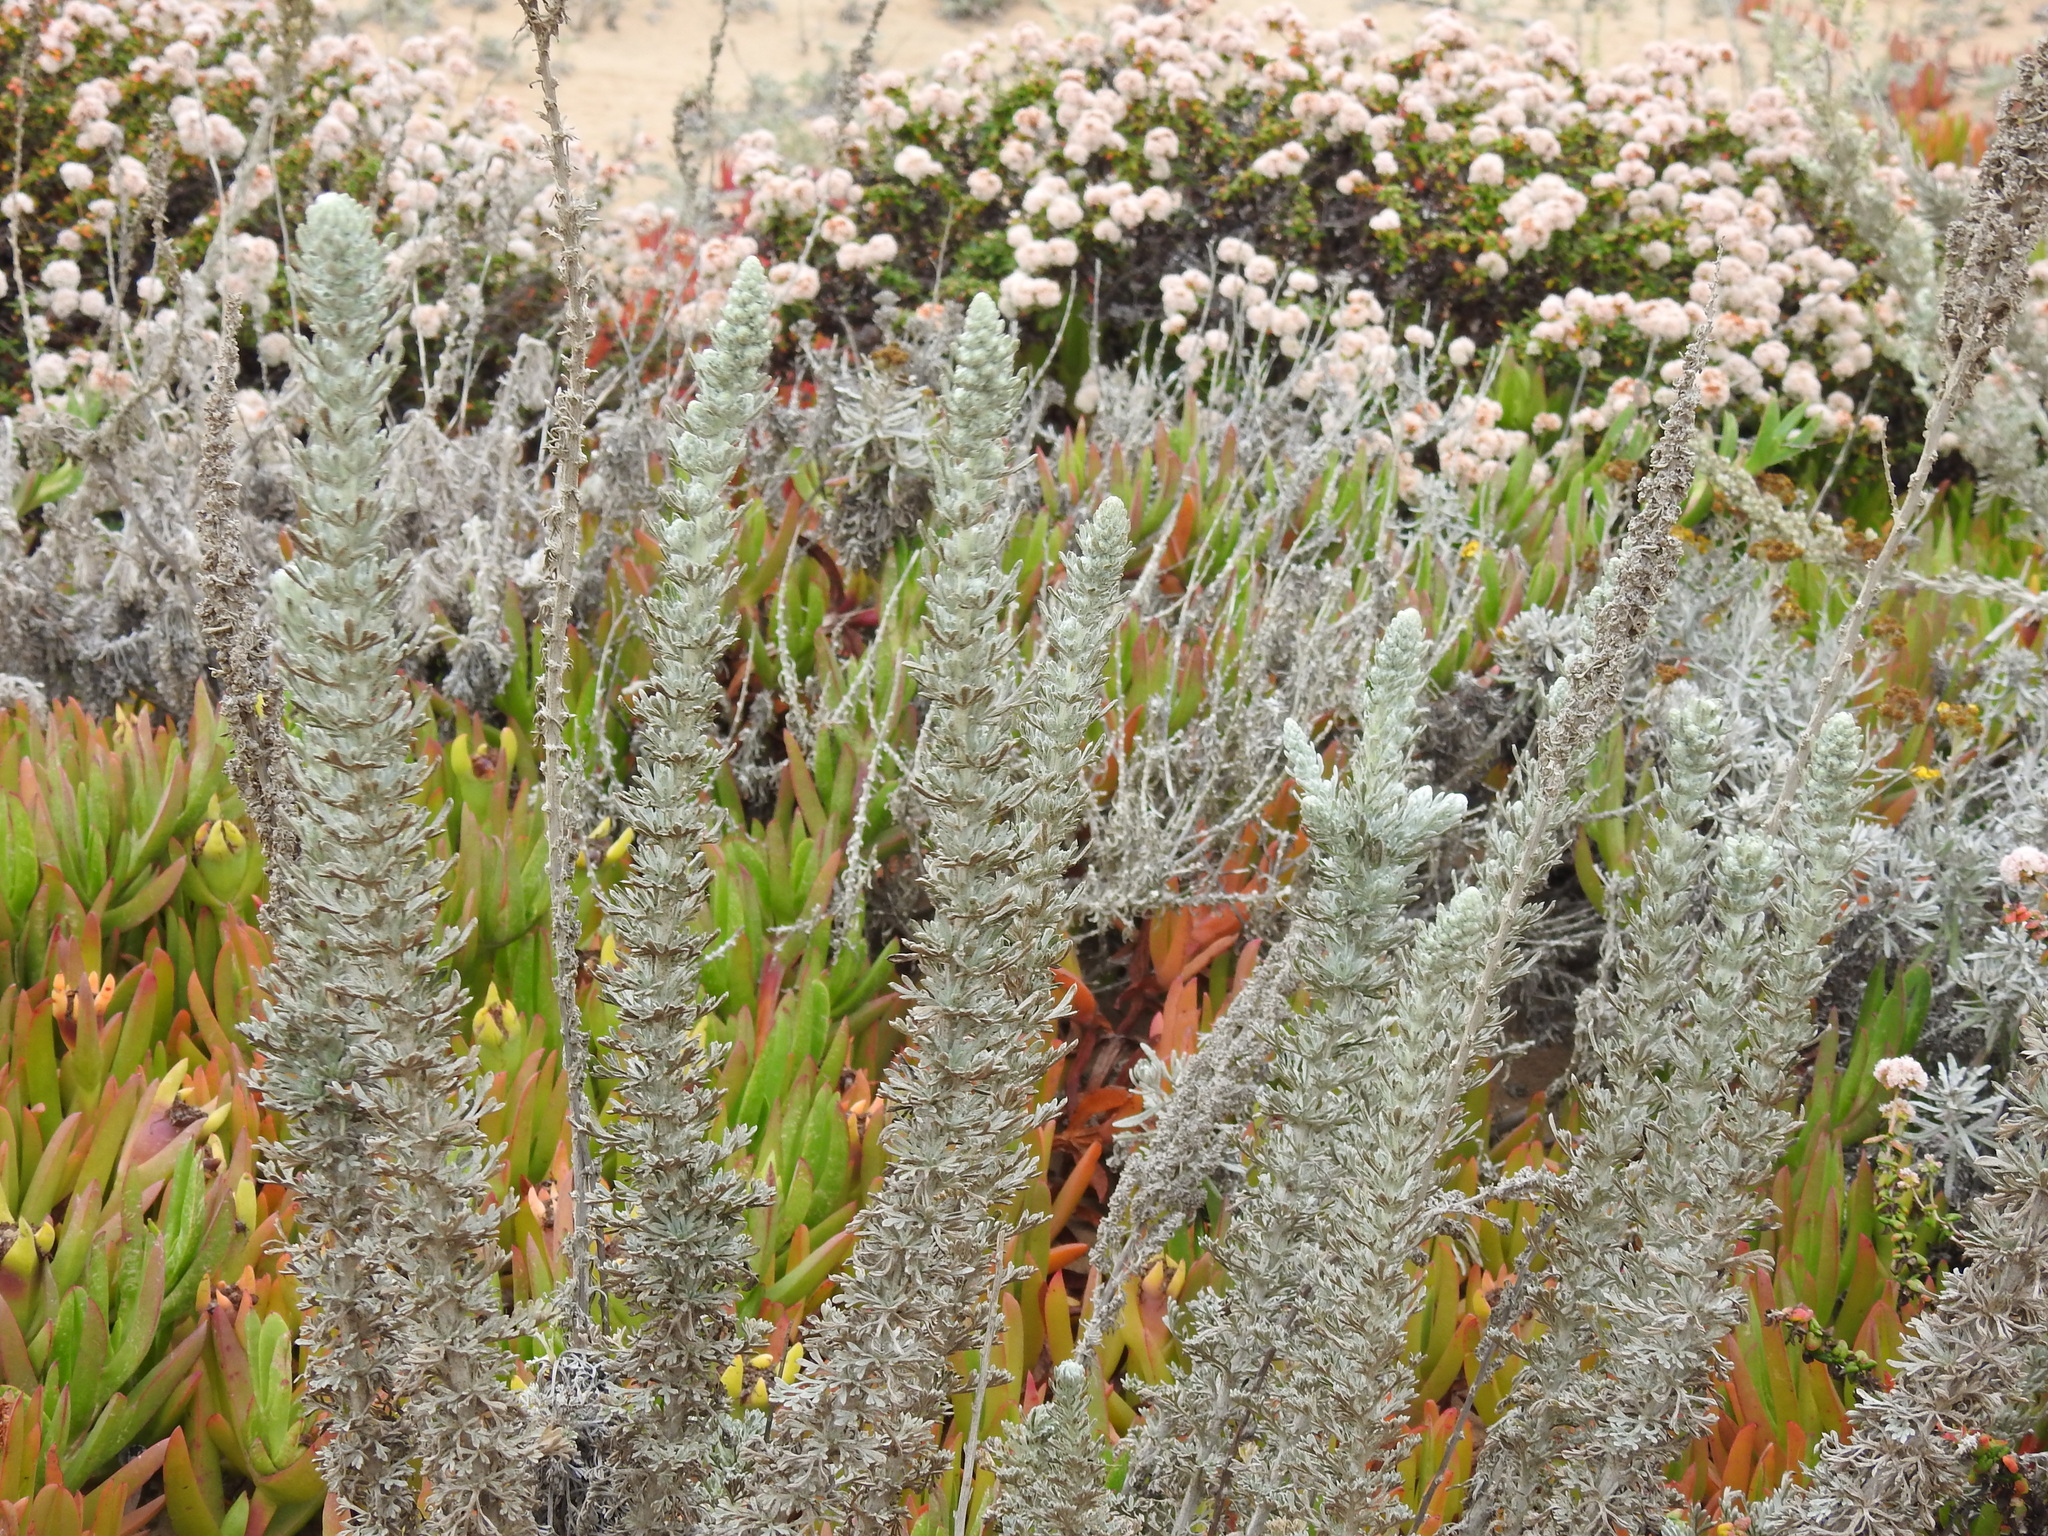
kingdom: Plantae
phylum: Tracheophyta
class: Magnoliopsida
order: Asterales
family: Asteraceae
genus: Artemisia
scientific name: Artemisia pycnocephala
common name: Coastal sagewort
